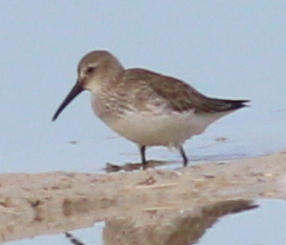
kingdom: Animalia
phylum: Chordata
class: Aves
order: Charadriiformes
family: Scolopacidae
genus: Calidris
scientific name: Calidris alpina
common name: Dunlin
